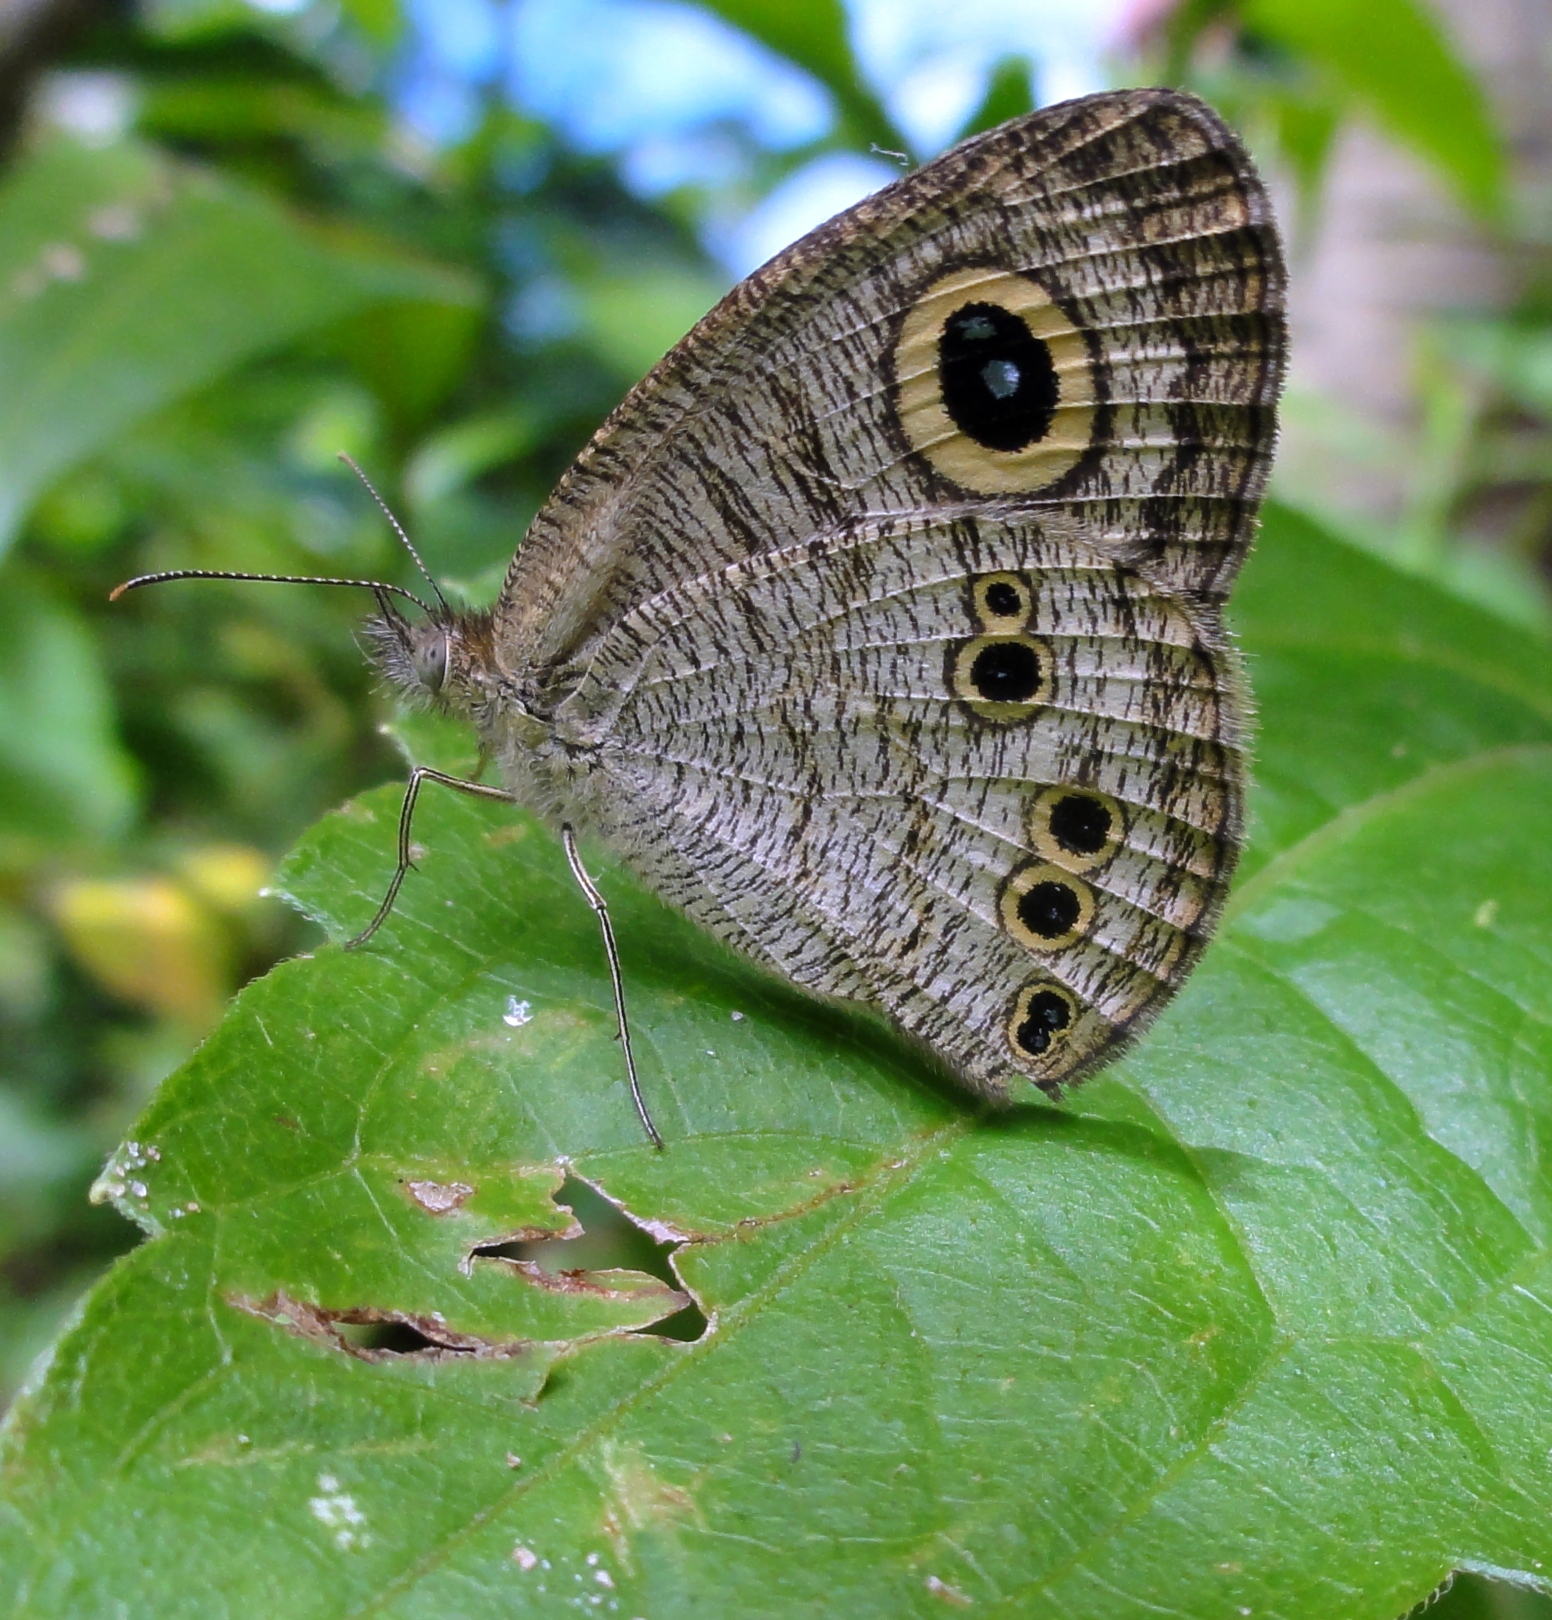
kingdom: Animalia
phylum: Arthropoda
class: Insecta
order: Lepidoptera
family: Nymphalidae
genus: Ypthima
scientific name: Ypthima baldus
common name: Common five-ring
